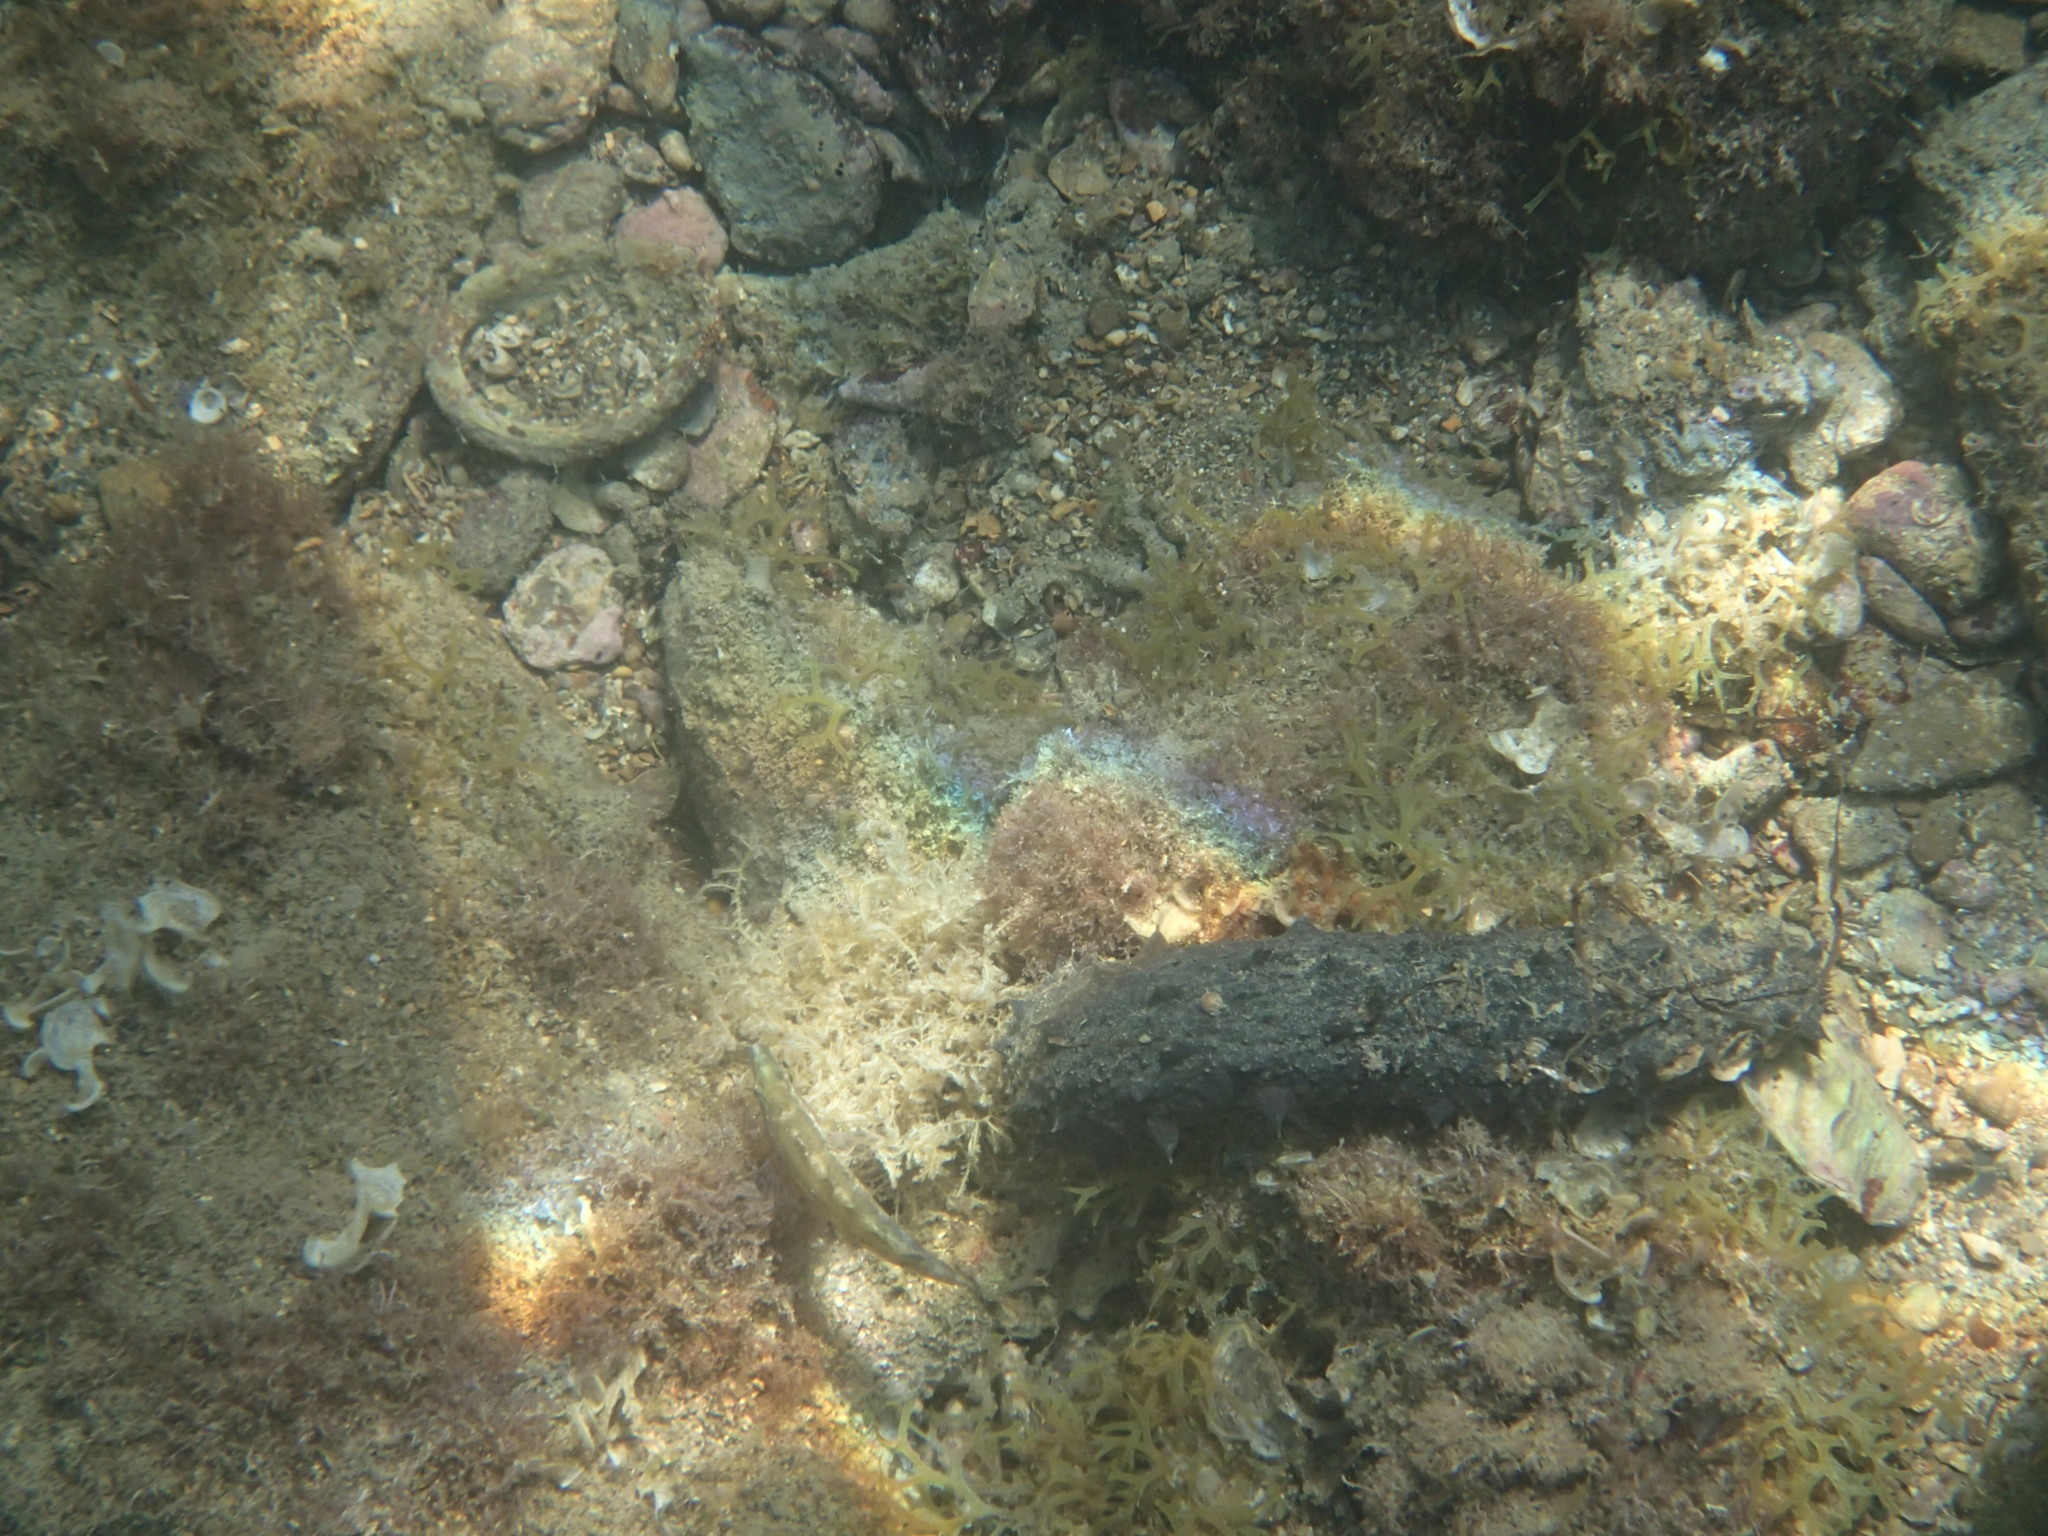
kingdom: Animalia
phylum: Echinodermata
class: Holothuroidea
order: Holothuriida
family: Holothuriidae
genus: Holothuria
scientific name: Holothuria
